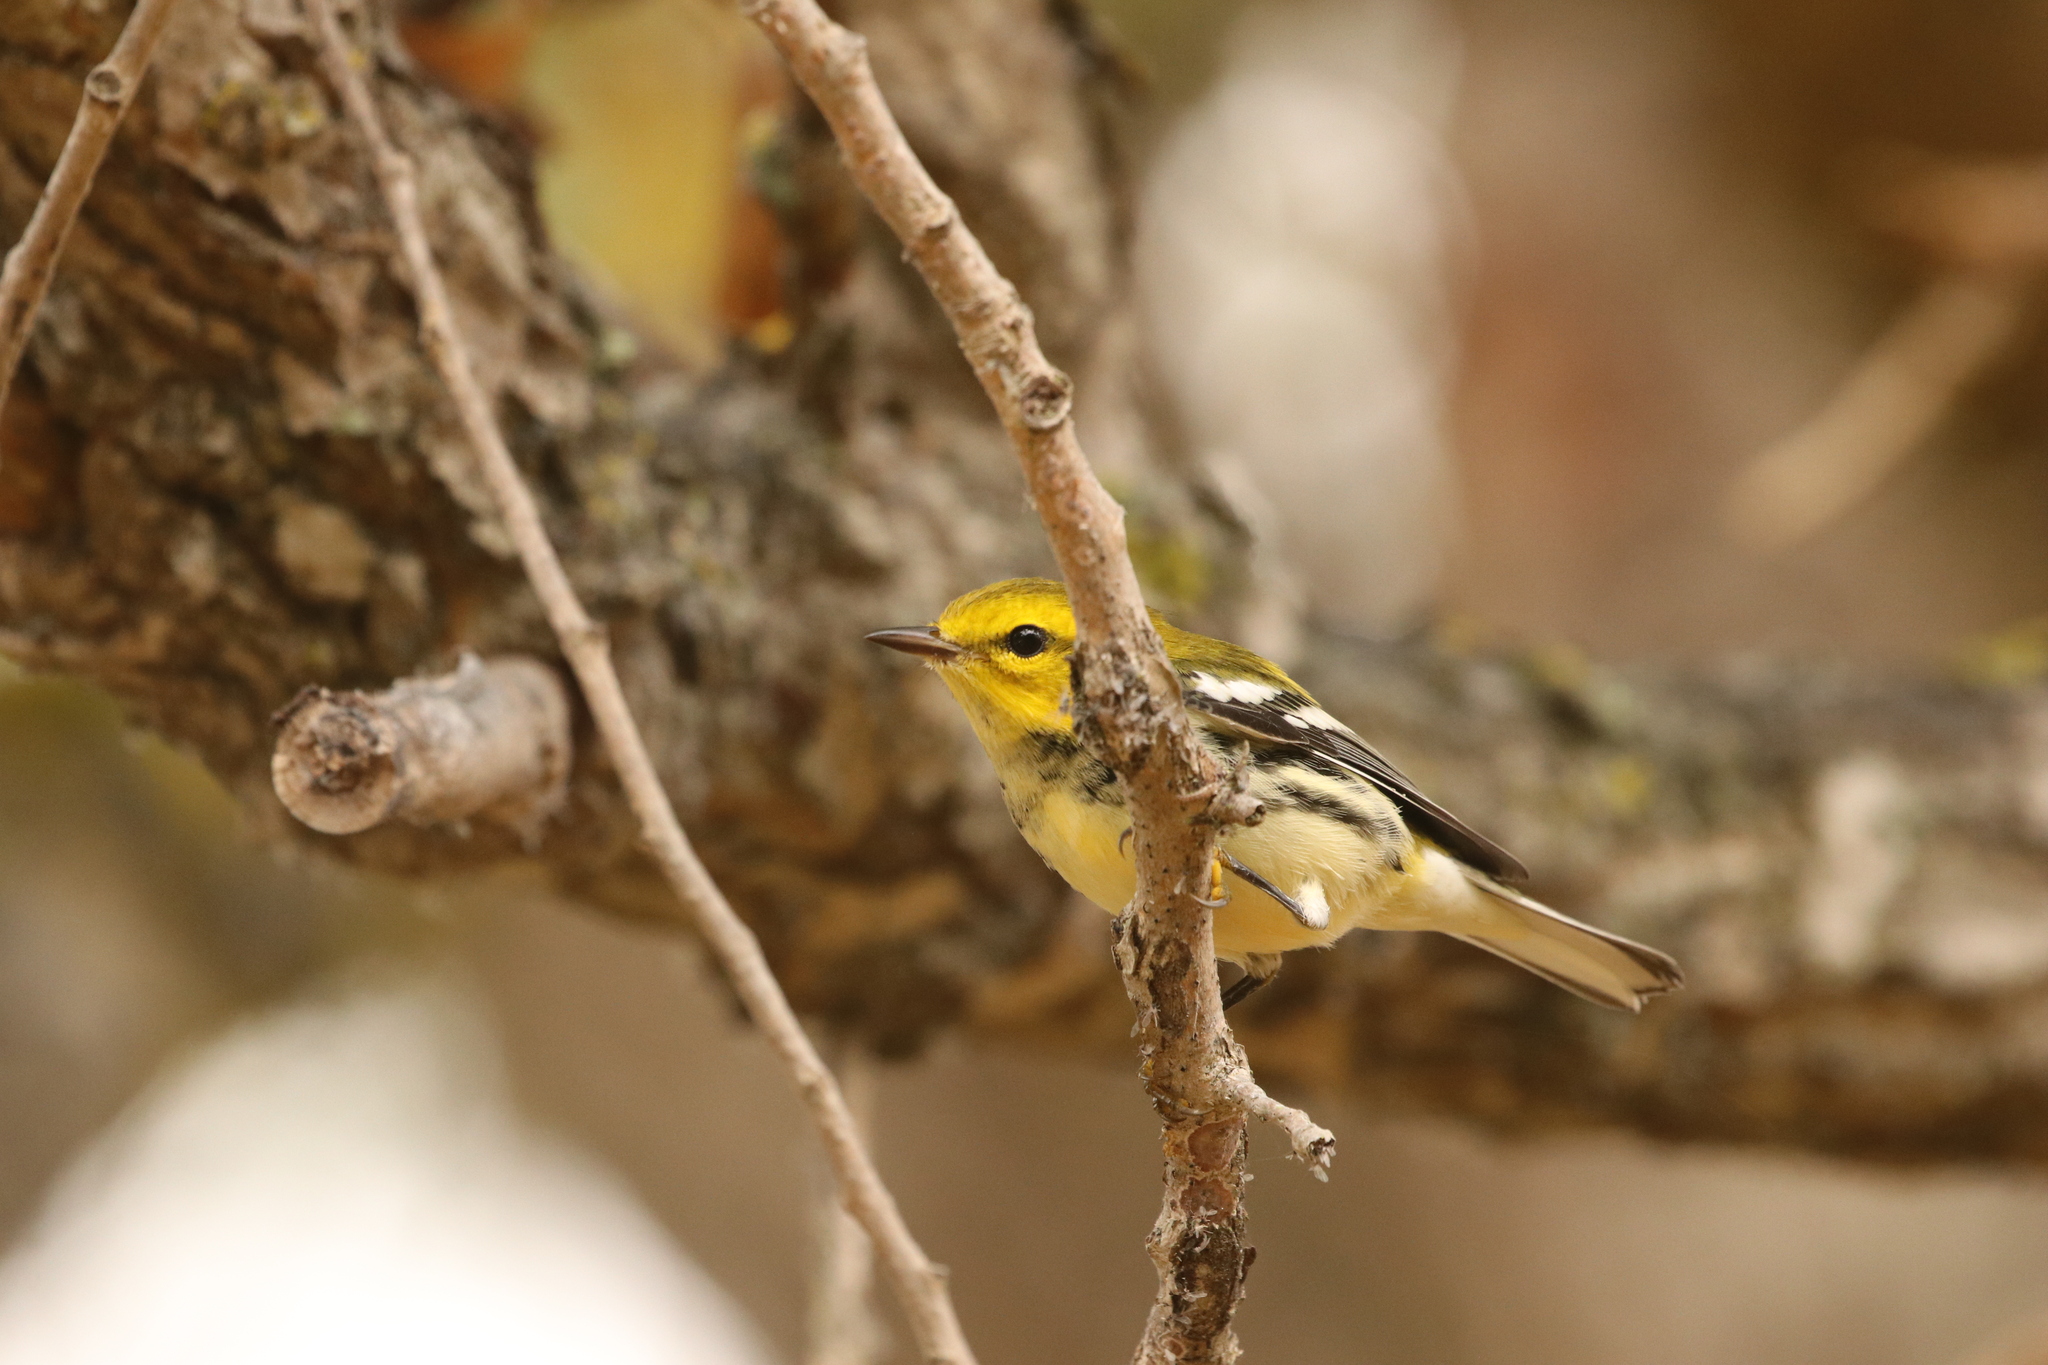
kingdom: Animalia
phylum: Chordata
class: Aves
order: Passeriformes
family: Parulidae
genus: Setophaga
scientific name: Setophaga virens
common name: Black-throated green warbler
